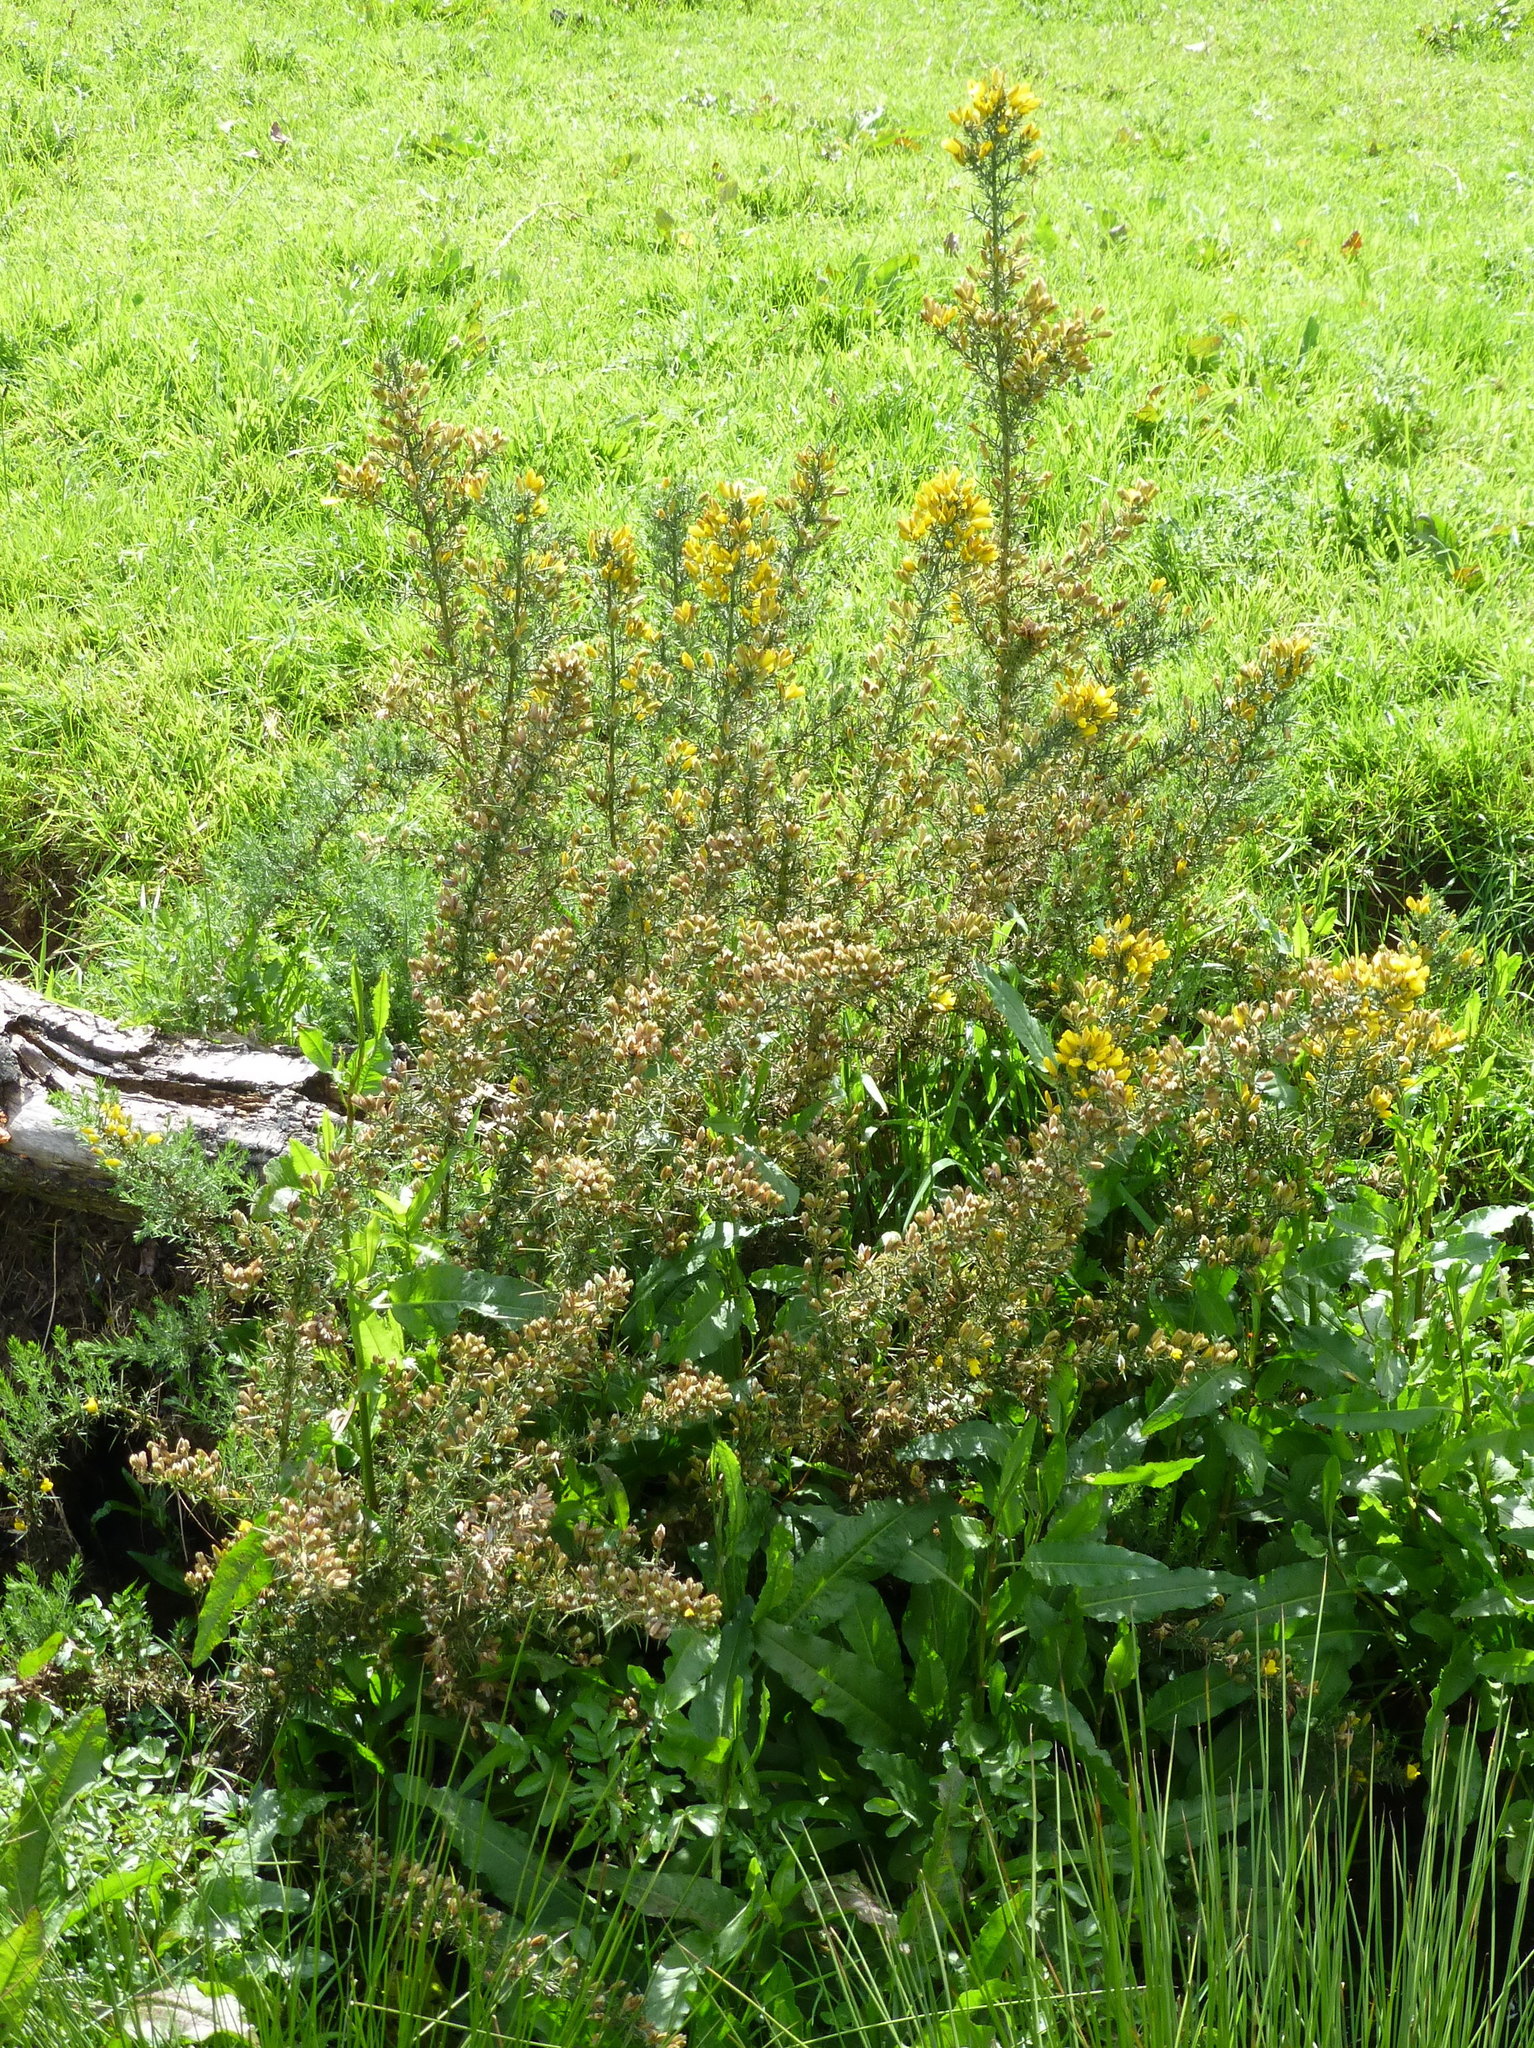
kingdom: Plantae
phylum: Tracheophyta
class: Magnoliopsida
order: Fabales
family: Fabaceae
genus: Ulex
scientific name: Ulex europaeus
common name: Common gorse
